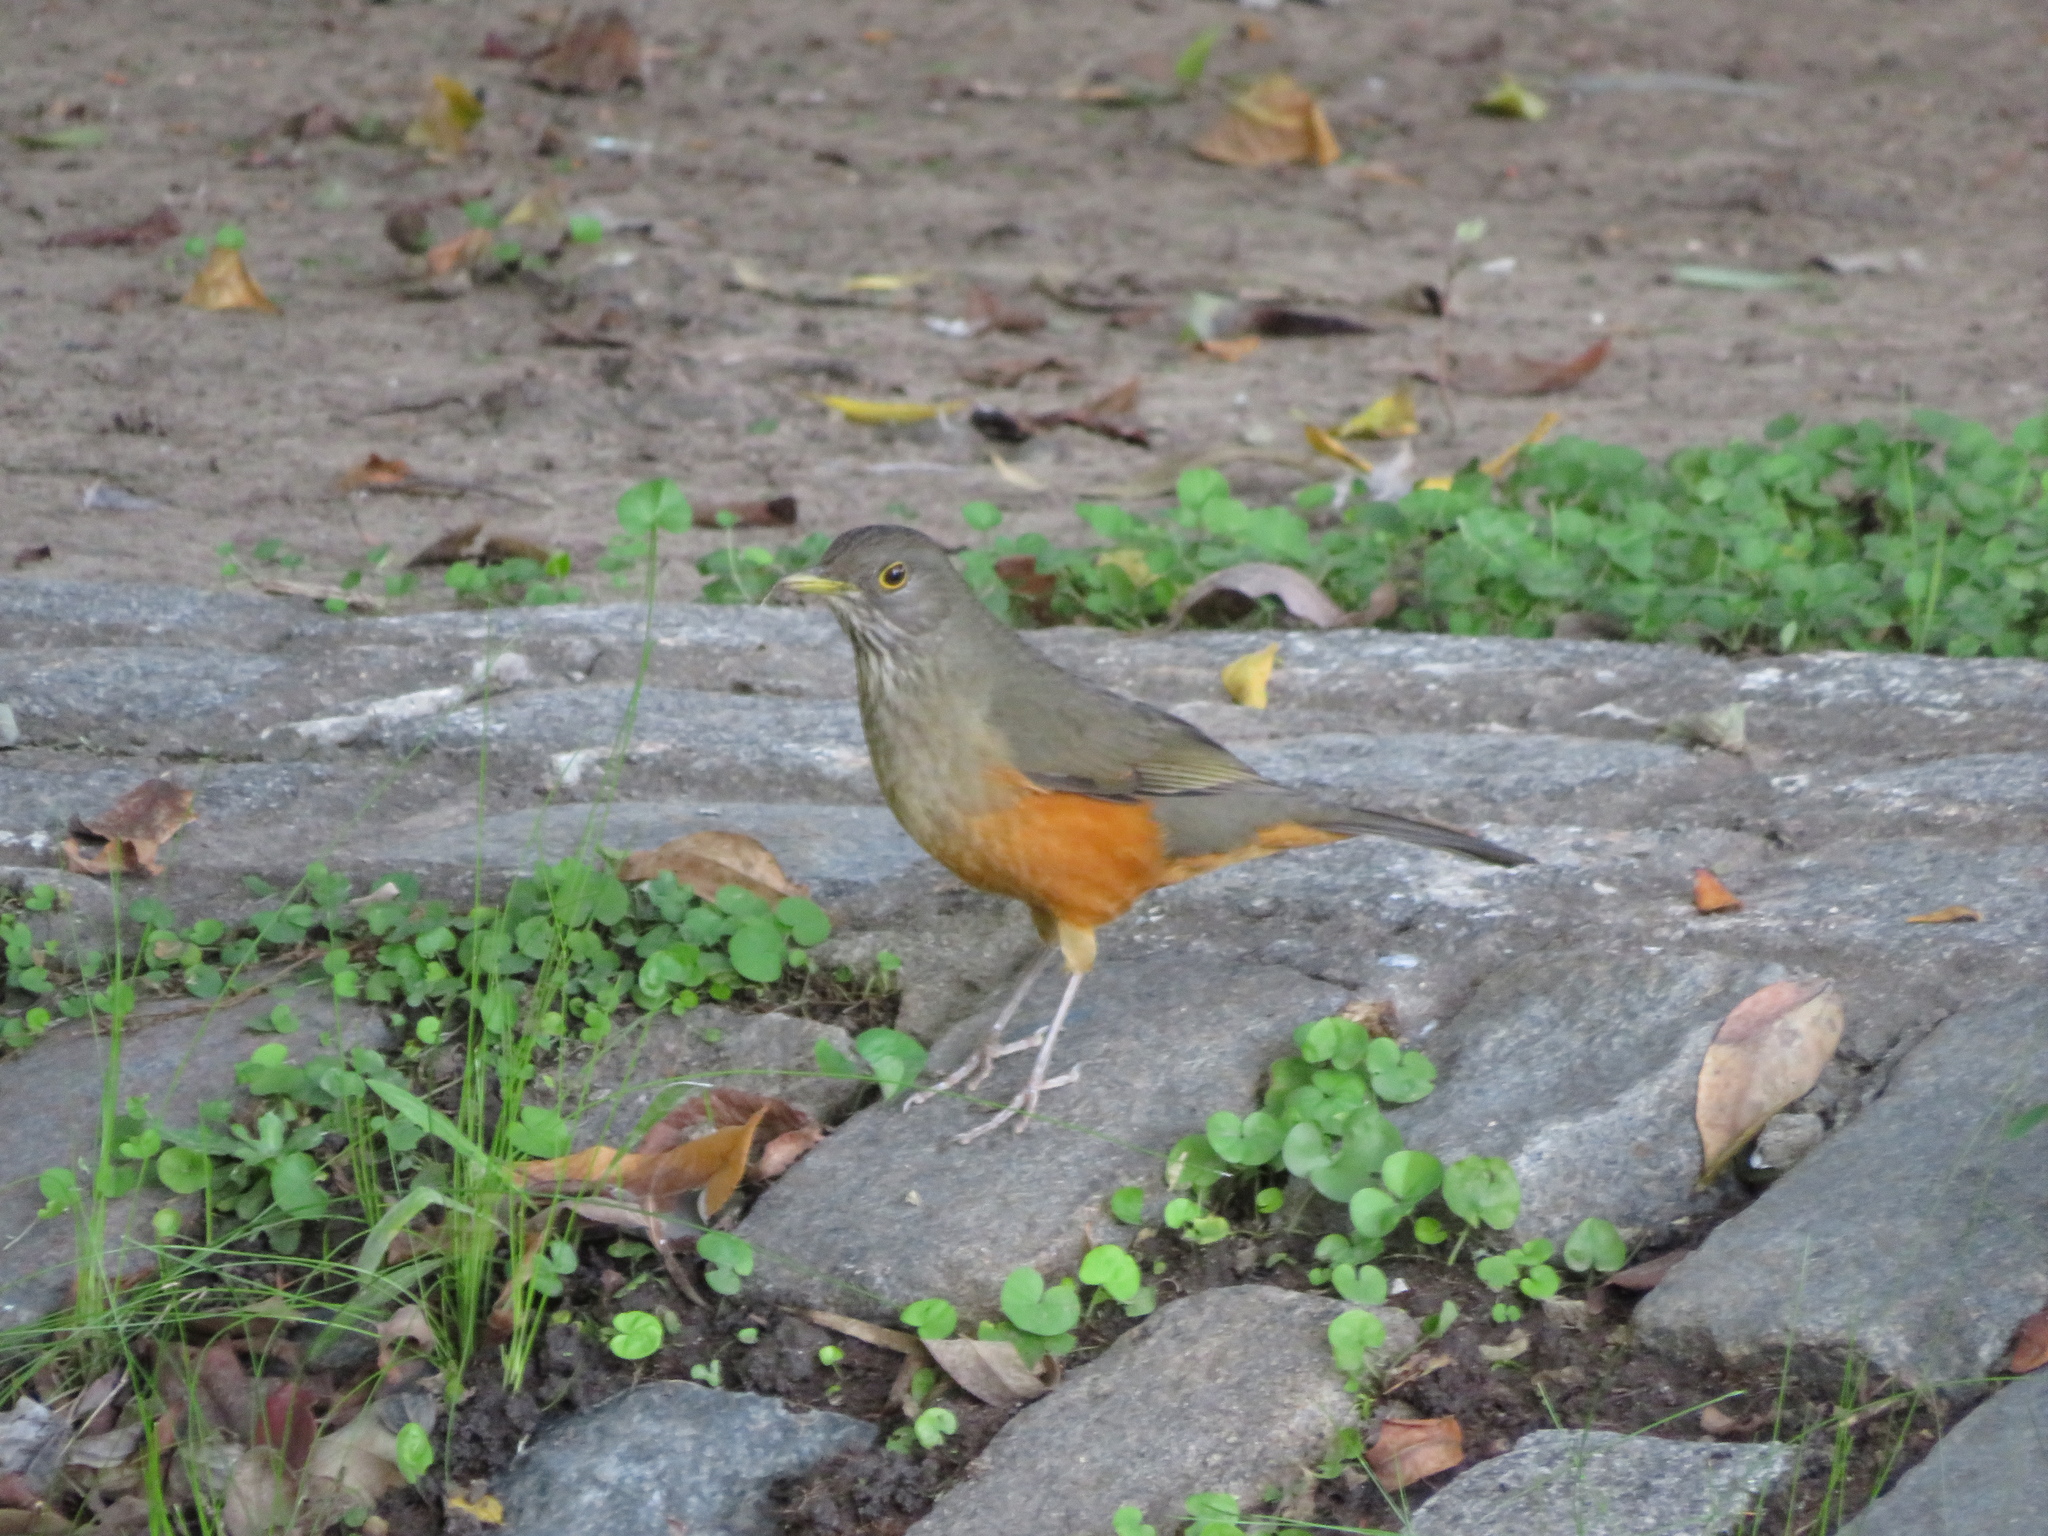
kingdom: Animalia
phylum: Chordata
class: Aves
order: Passeriformes
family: Turdidae
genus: Turdus
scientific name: Turdus rufiventris
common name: Rufous-bellied thrush
